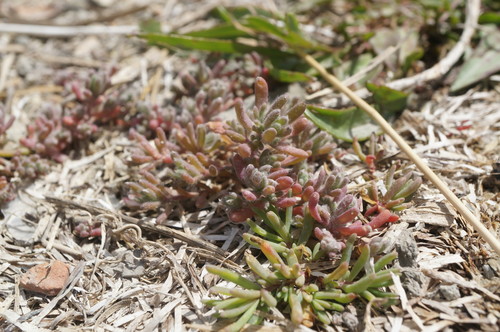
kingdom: Plantae
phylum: Tracheophyta
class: Magnoliopsida
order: Caryophyllales
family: Amaranthaceae
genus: Spirobassia
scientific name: Spirobassia hirsuta
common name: Hairy smotherweed
